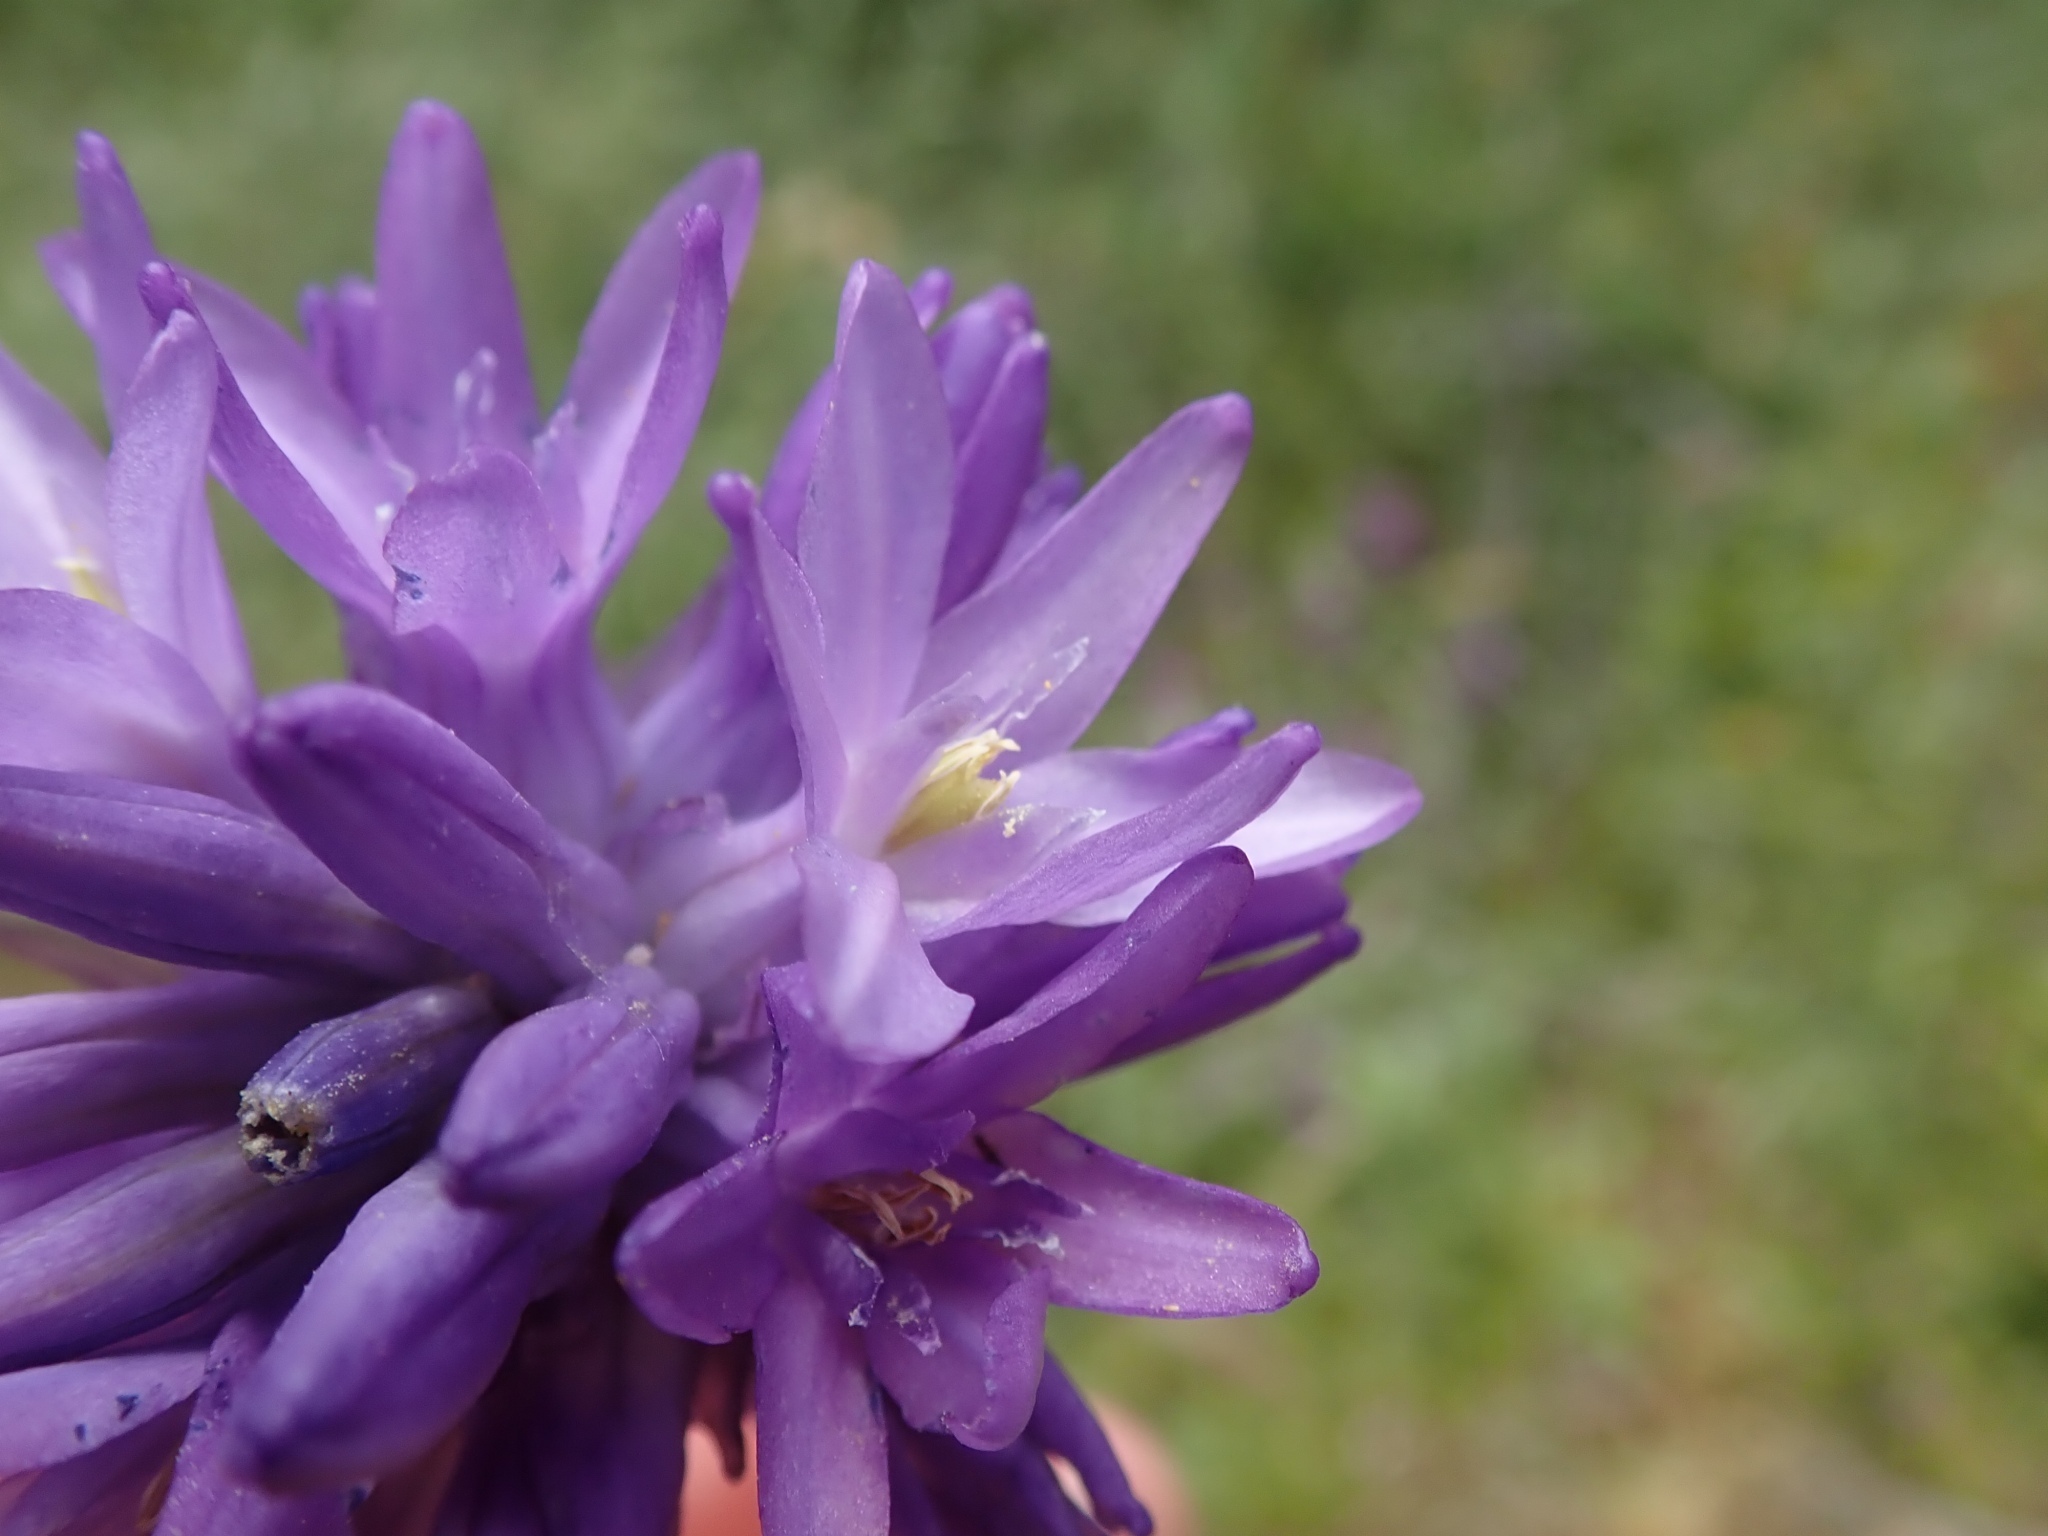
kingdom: Plantae
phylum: Tracheophyta
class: Liliopsida
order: Asparagales
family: Asparagaceae
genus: Dichelostemma
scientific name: Dichelostemma congestum
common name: Fork-tooth ookow
